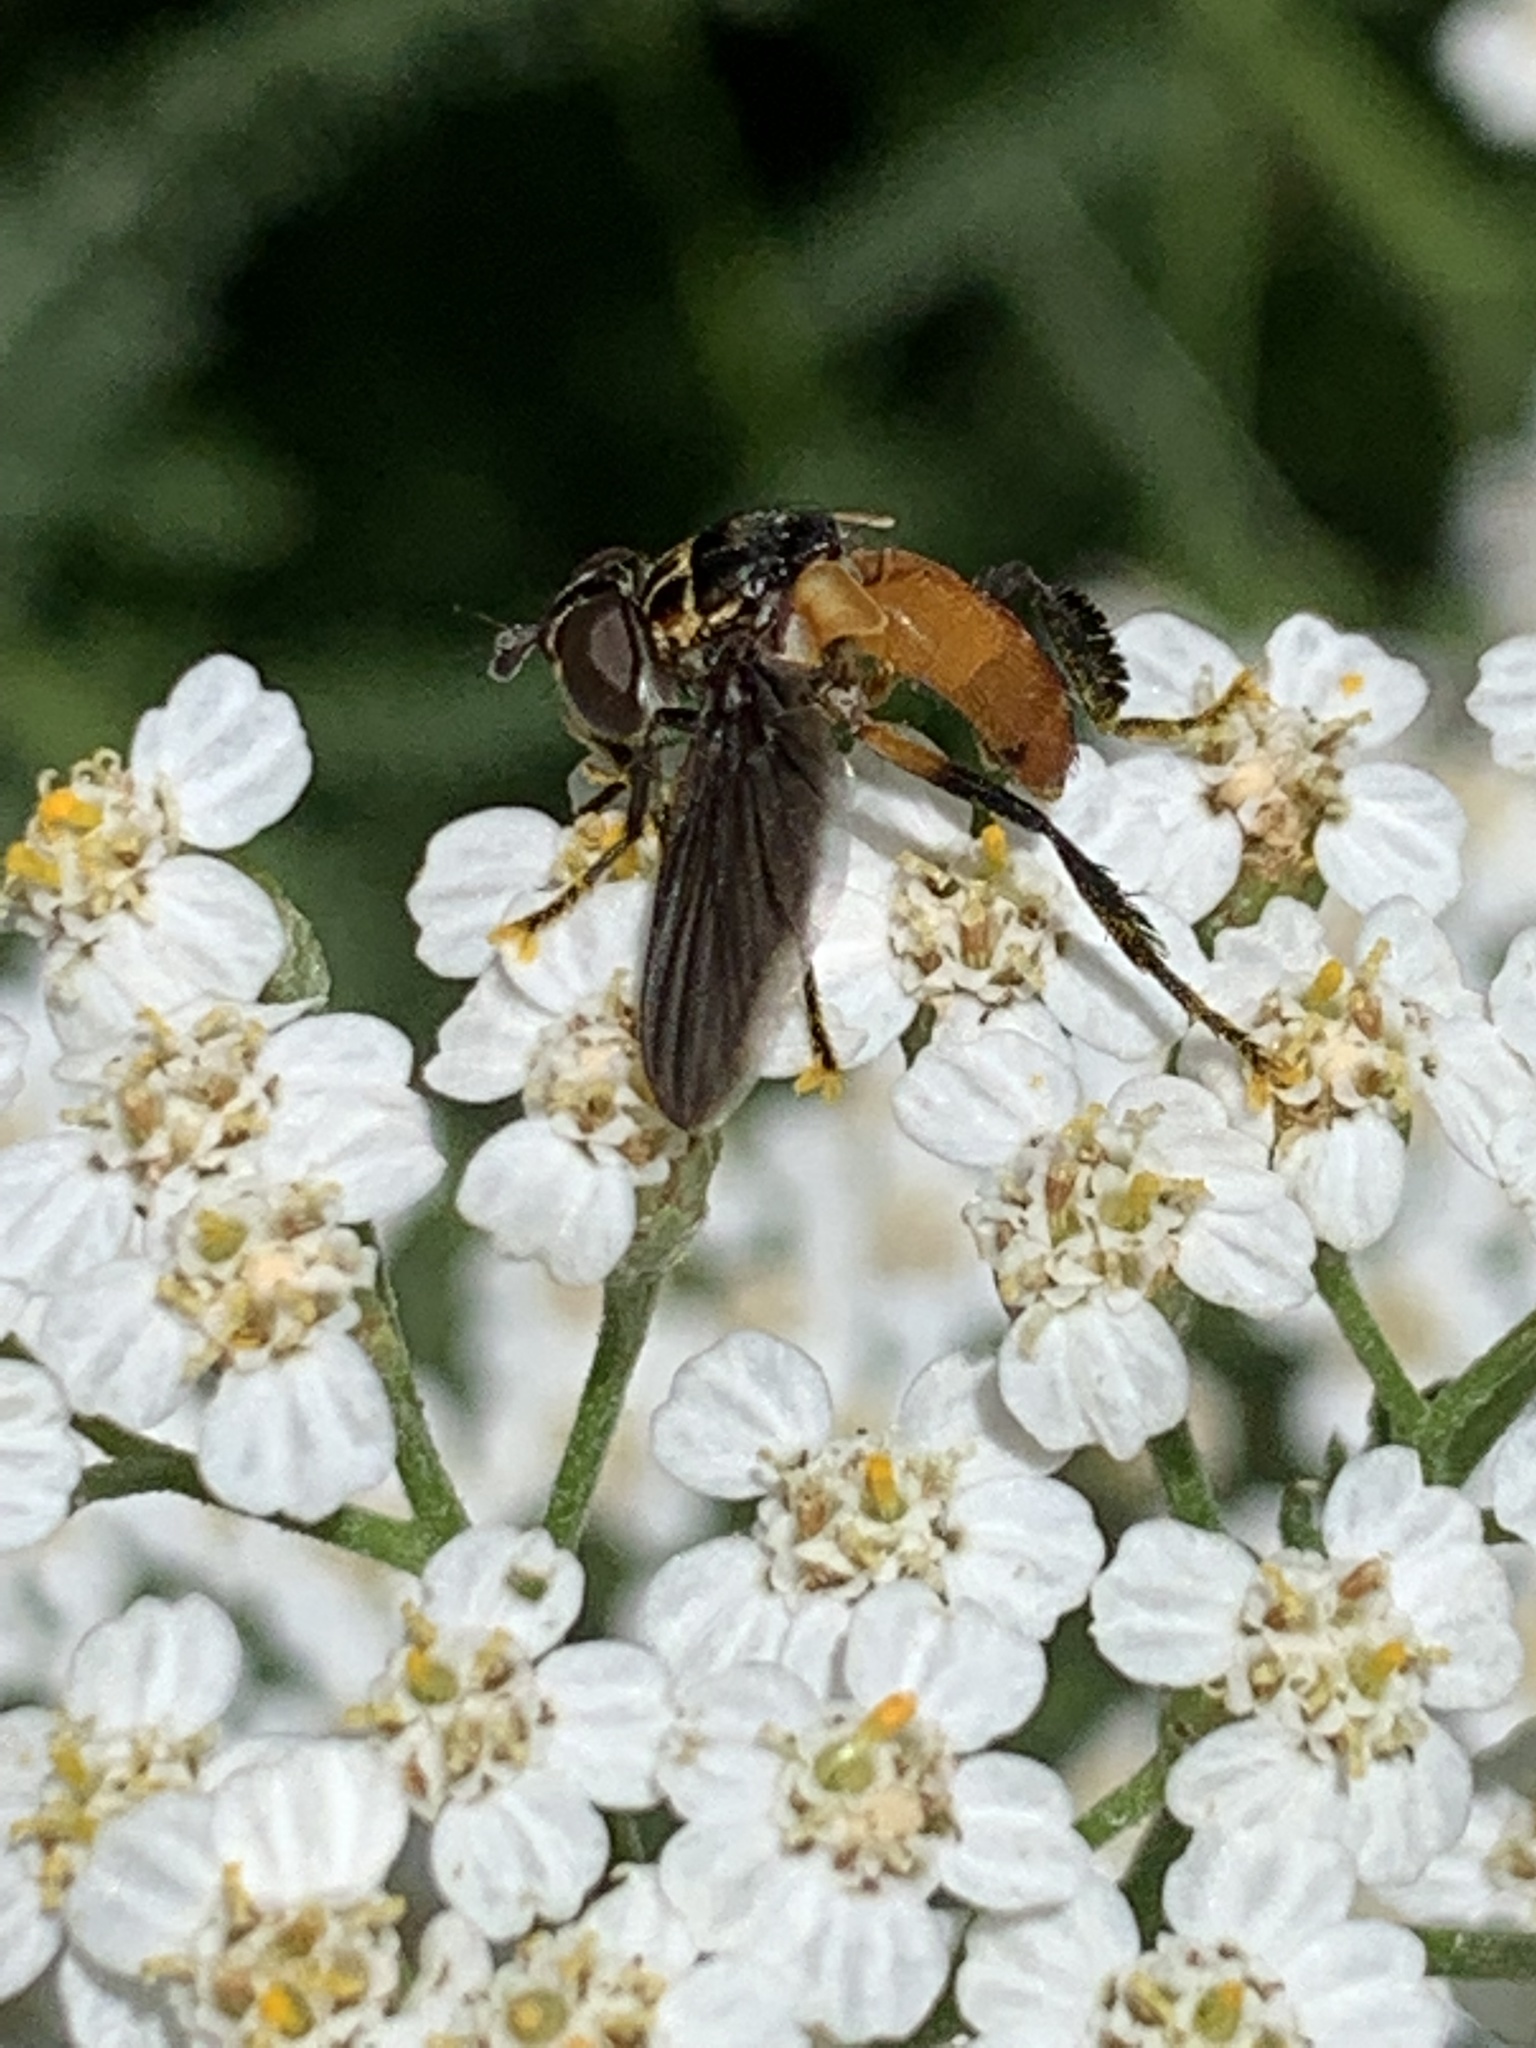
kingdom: Animalia
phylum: Arthropoda
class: Insecta
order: Diptera
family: Tachinidae
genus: Trichopoda
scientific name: Trichopoda pennipes
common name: Tachinid fly
